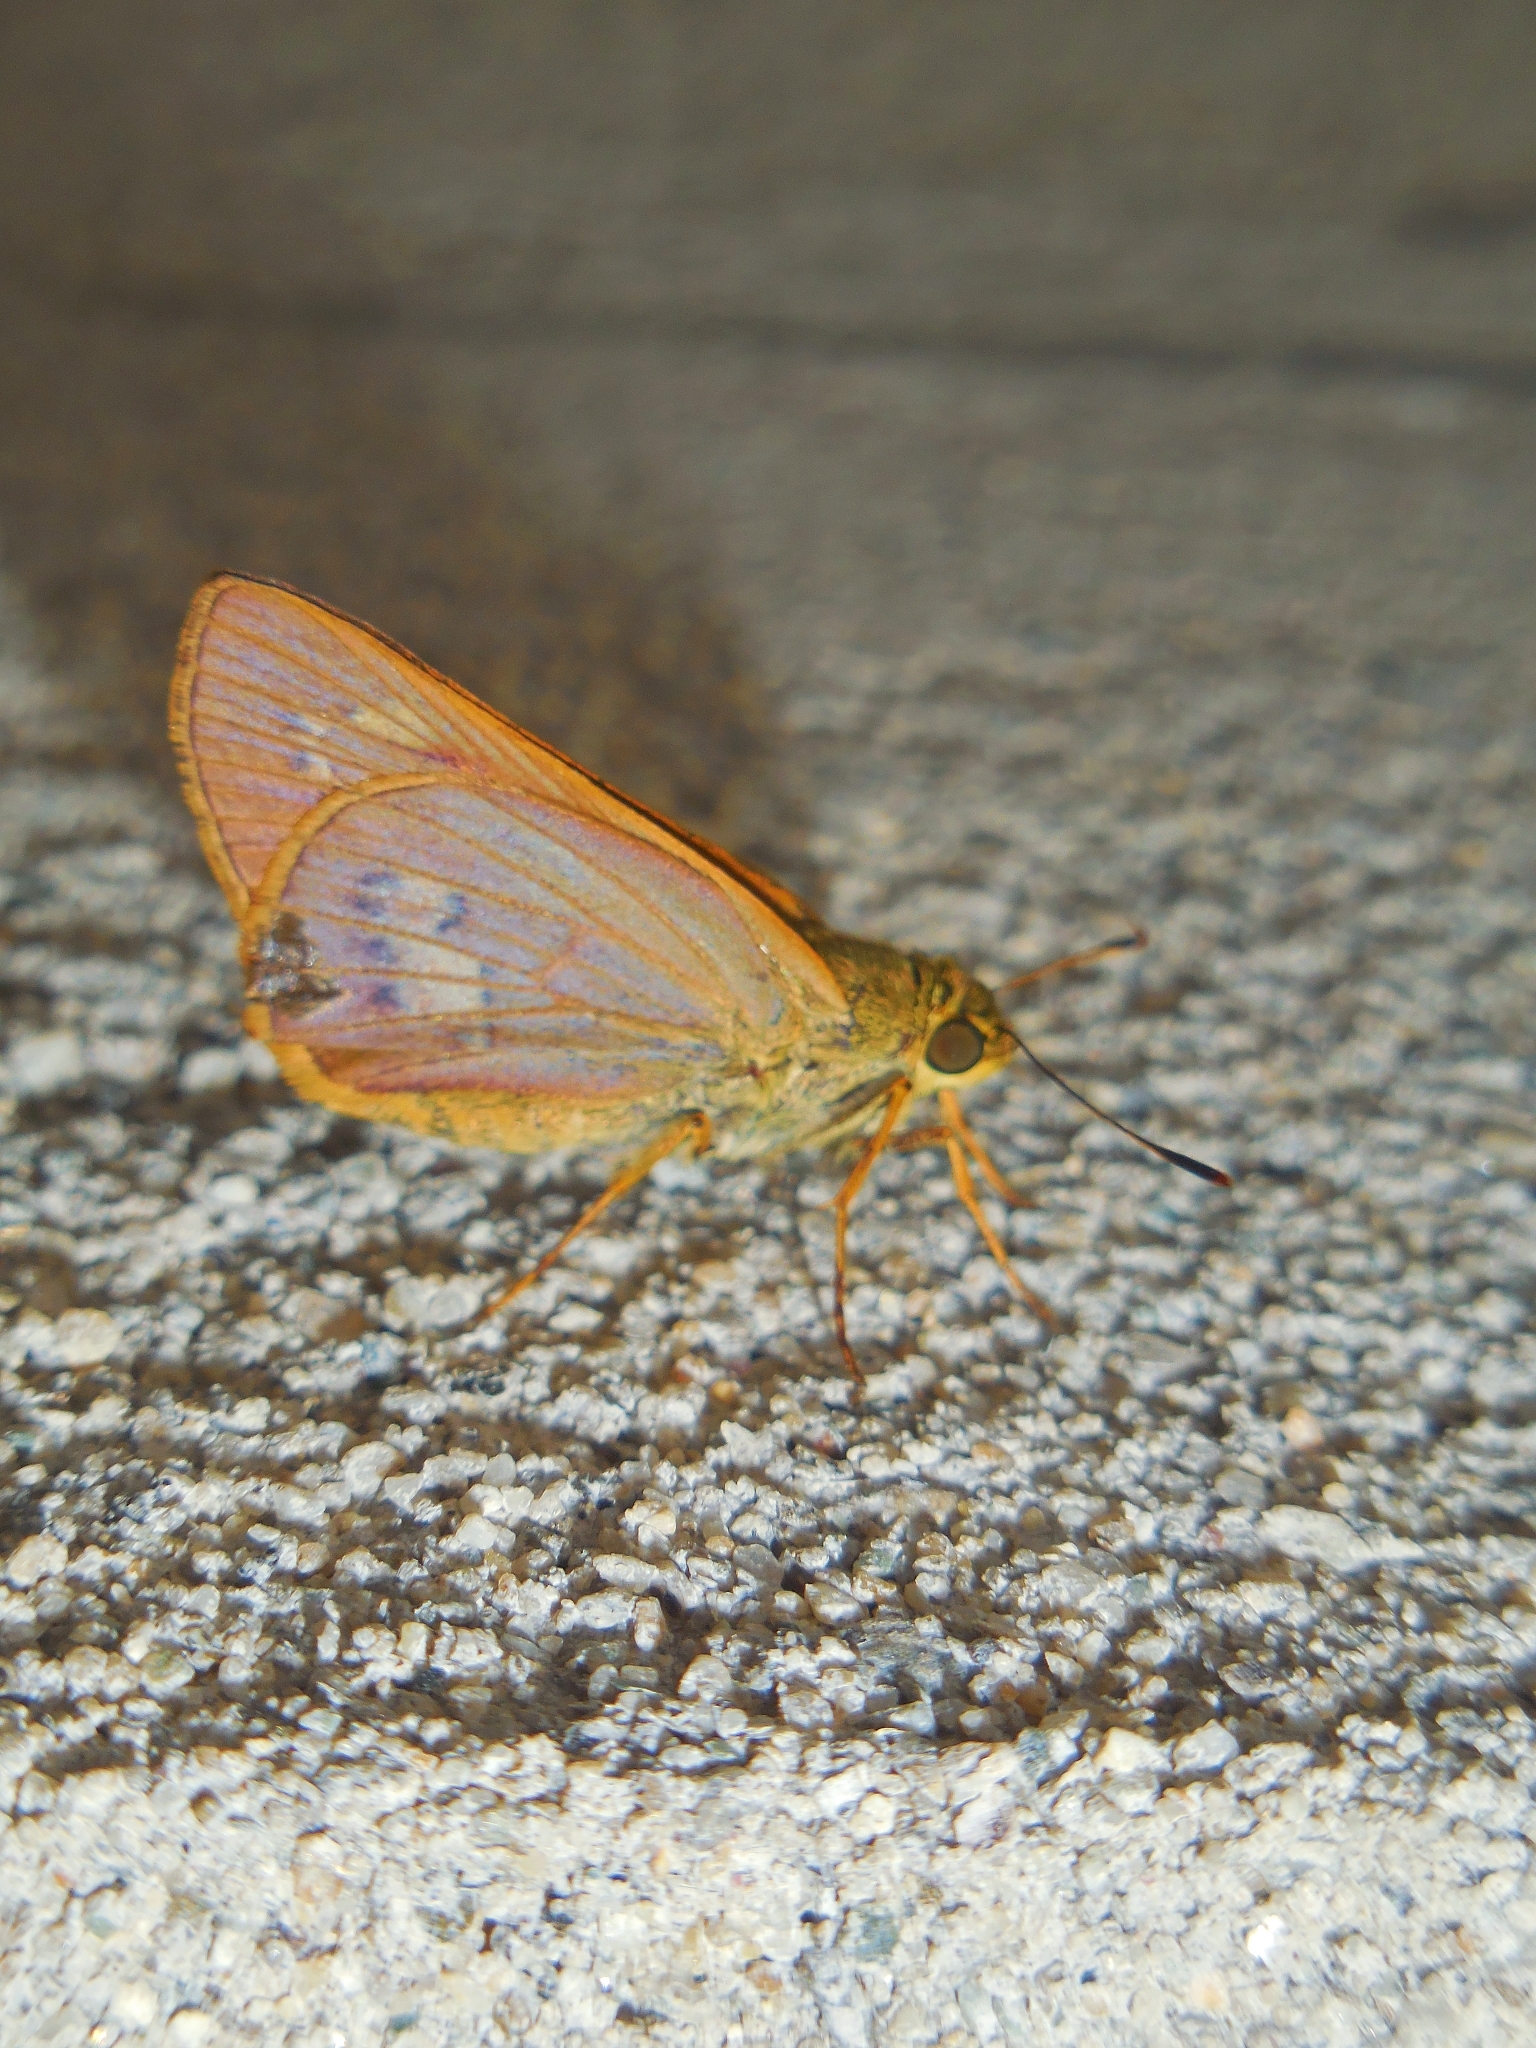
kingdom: Animalia
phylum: Arthropoda
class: Insecta
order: Lepidoptera
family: Hesperiidae
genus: Cephrenes
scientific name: Cephrenes
